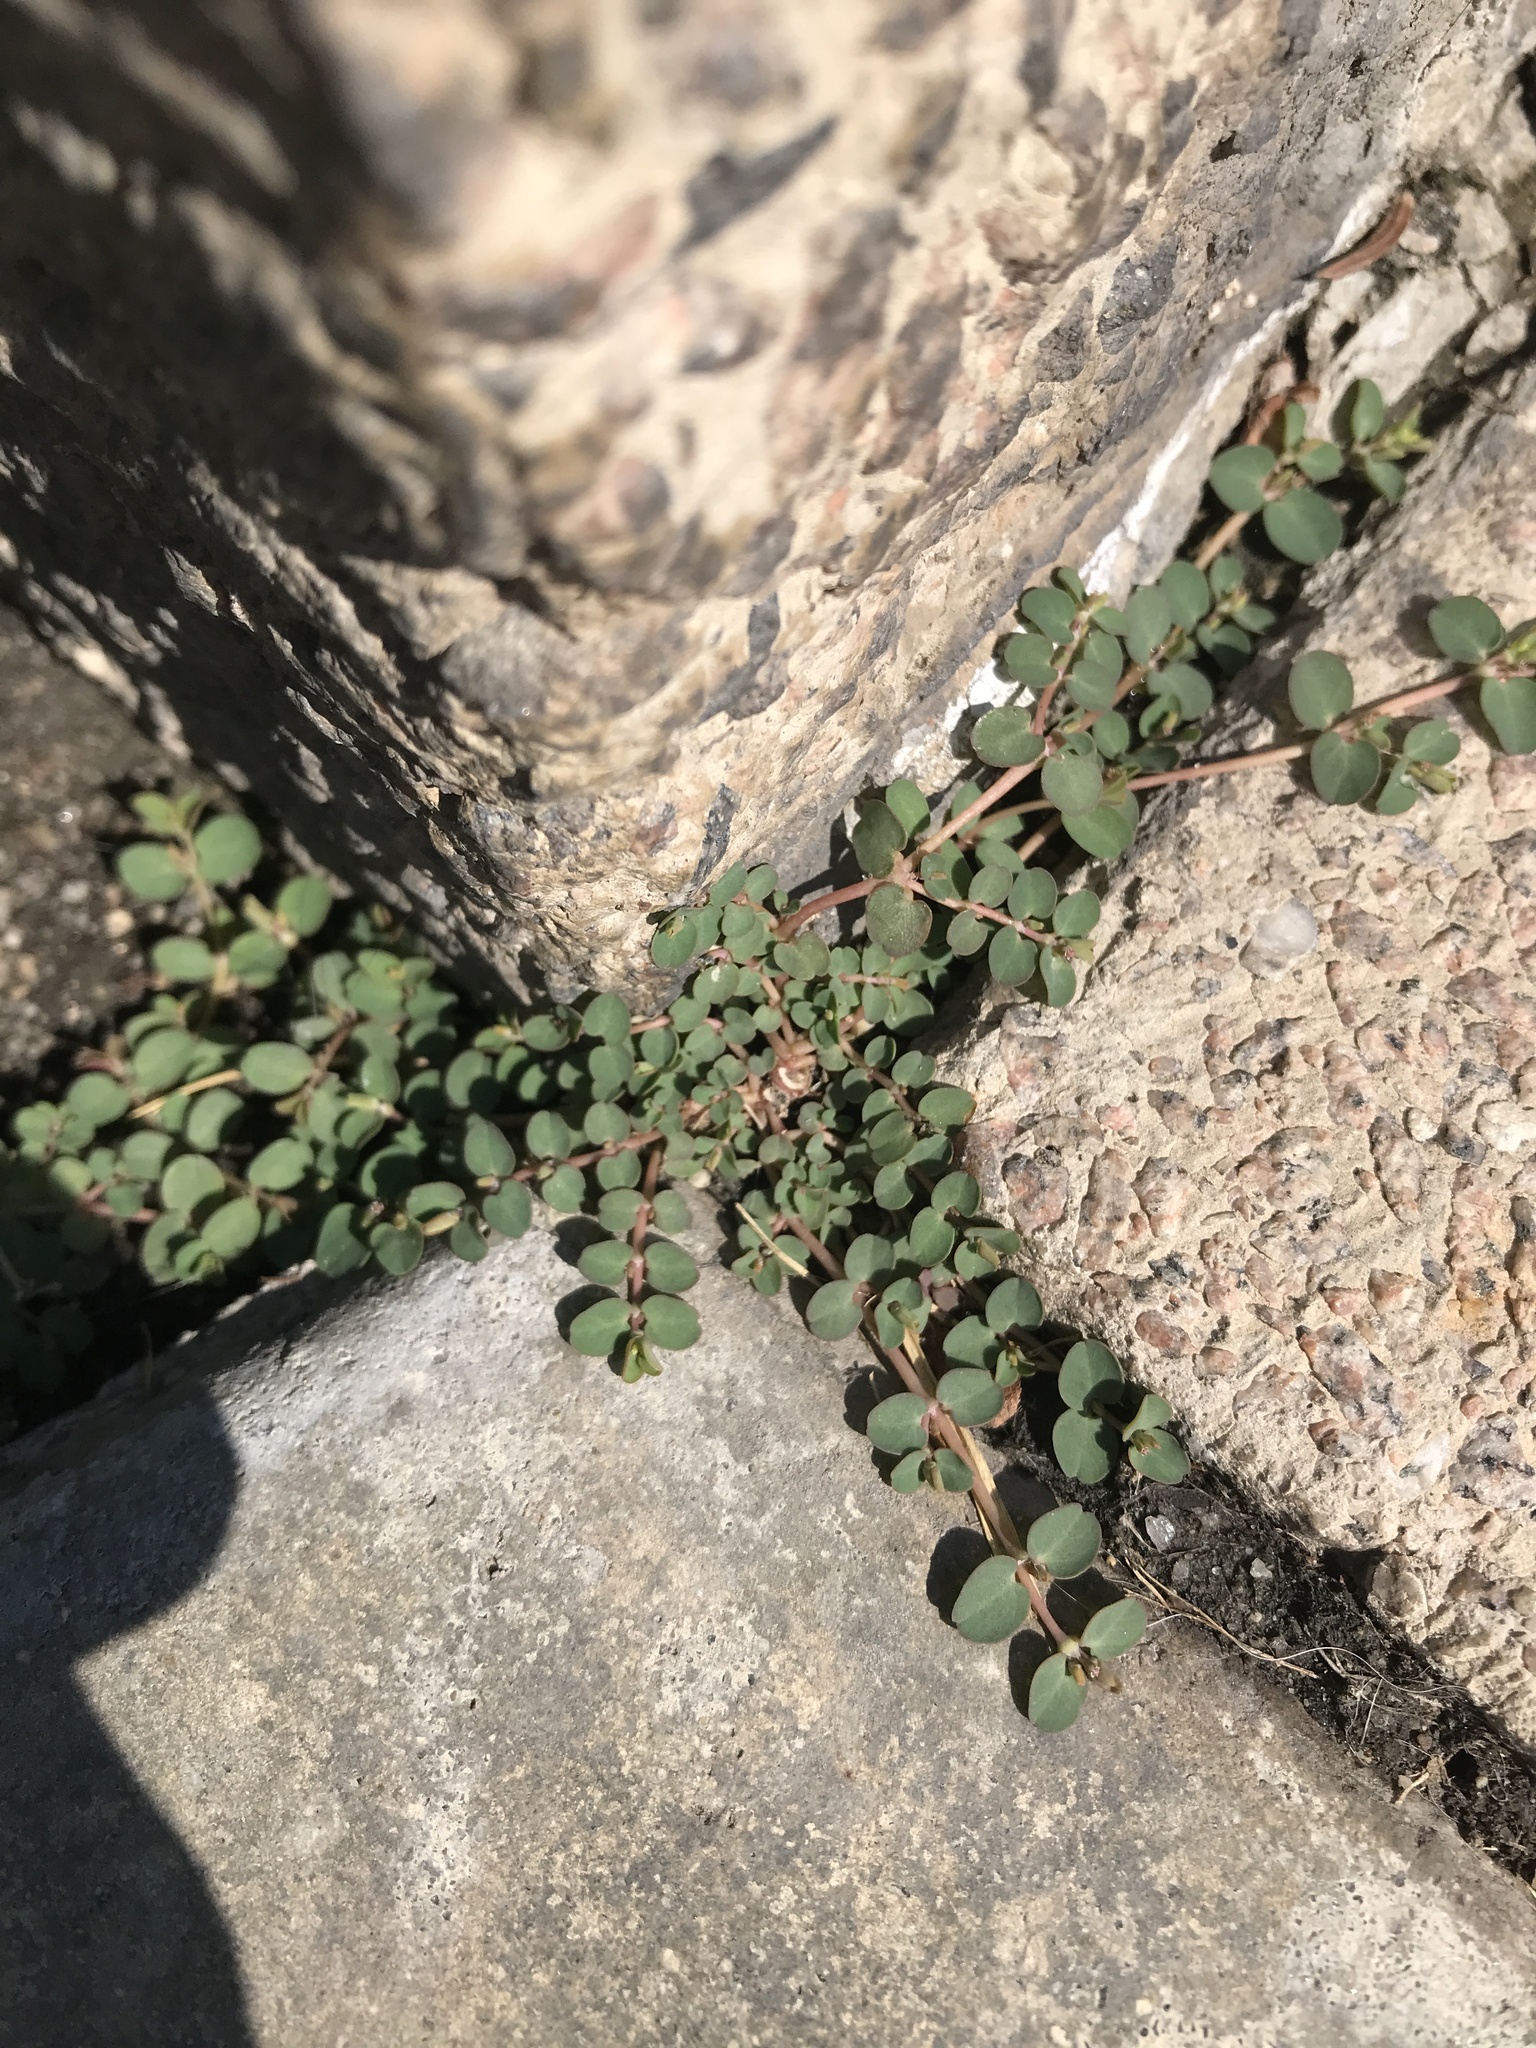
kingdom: Plantae
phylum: Tracheophyta
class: Magnoliopsida
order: Malpighiales
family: Euphorbiaceae
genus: Euphorbia
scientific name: Euphorbia serpens
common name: Matted sandmat
